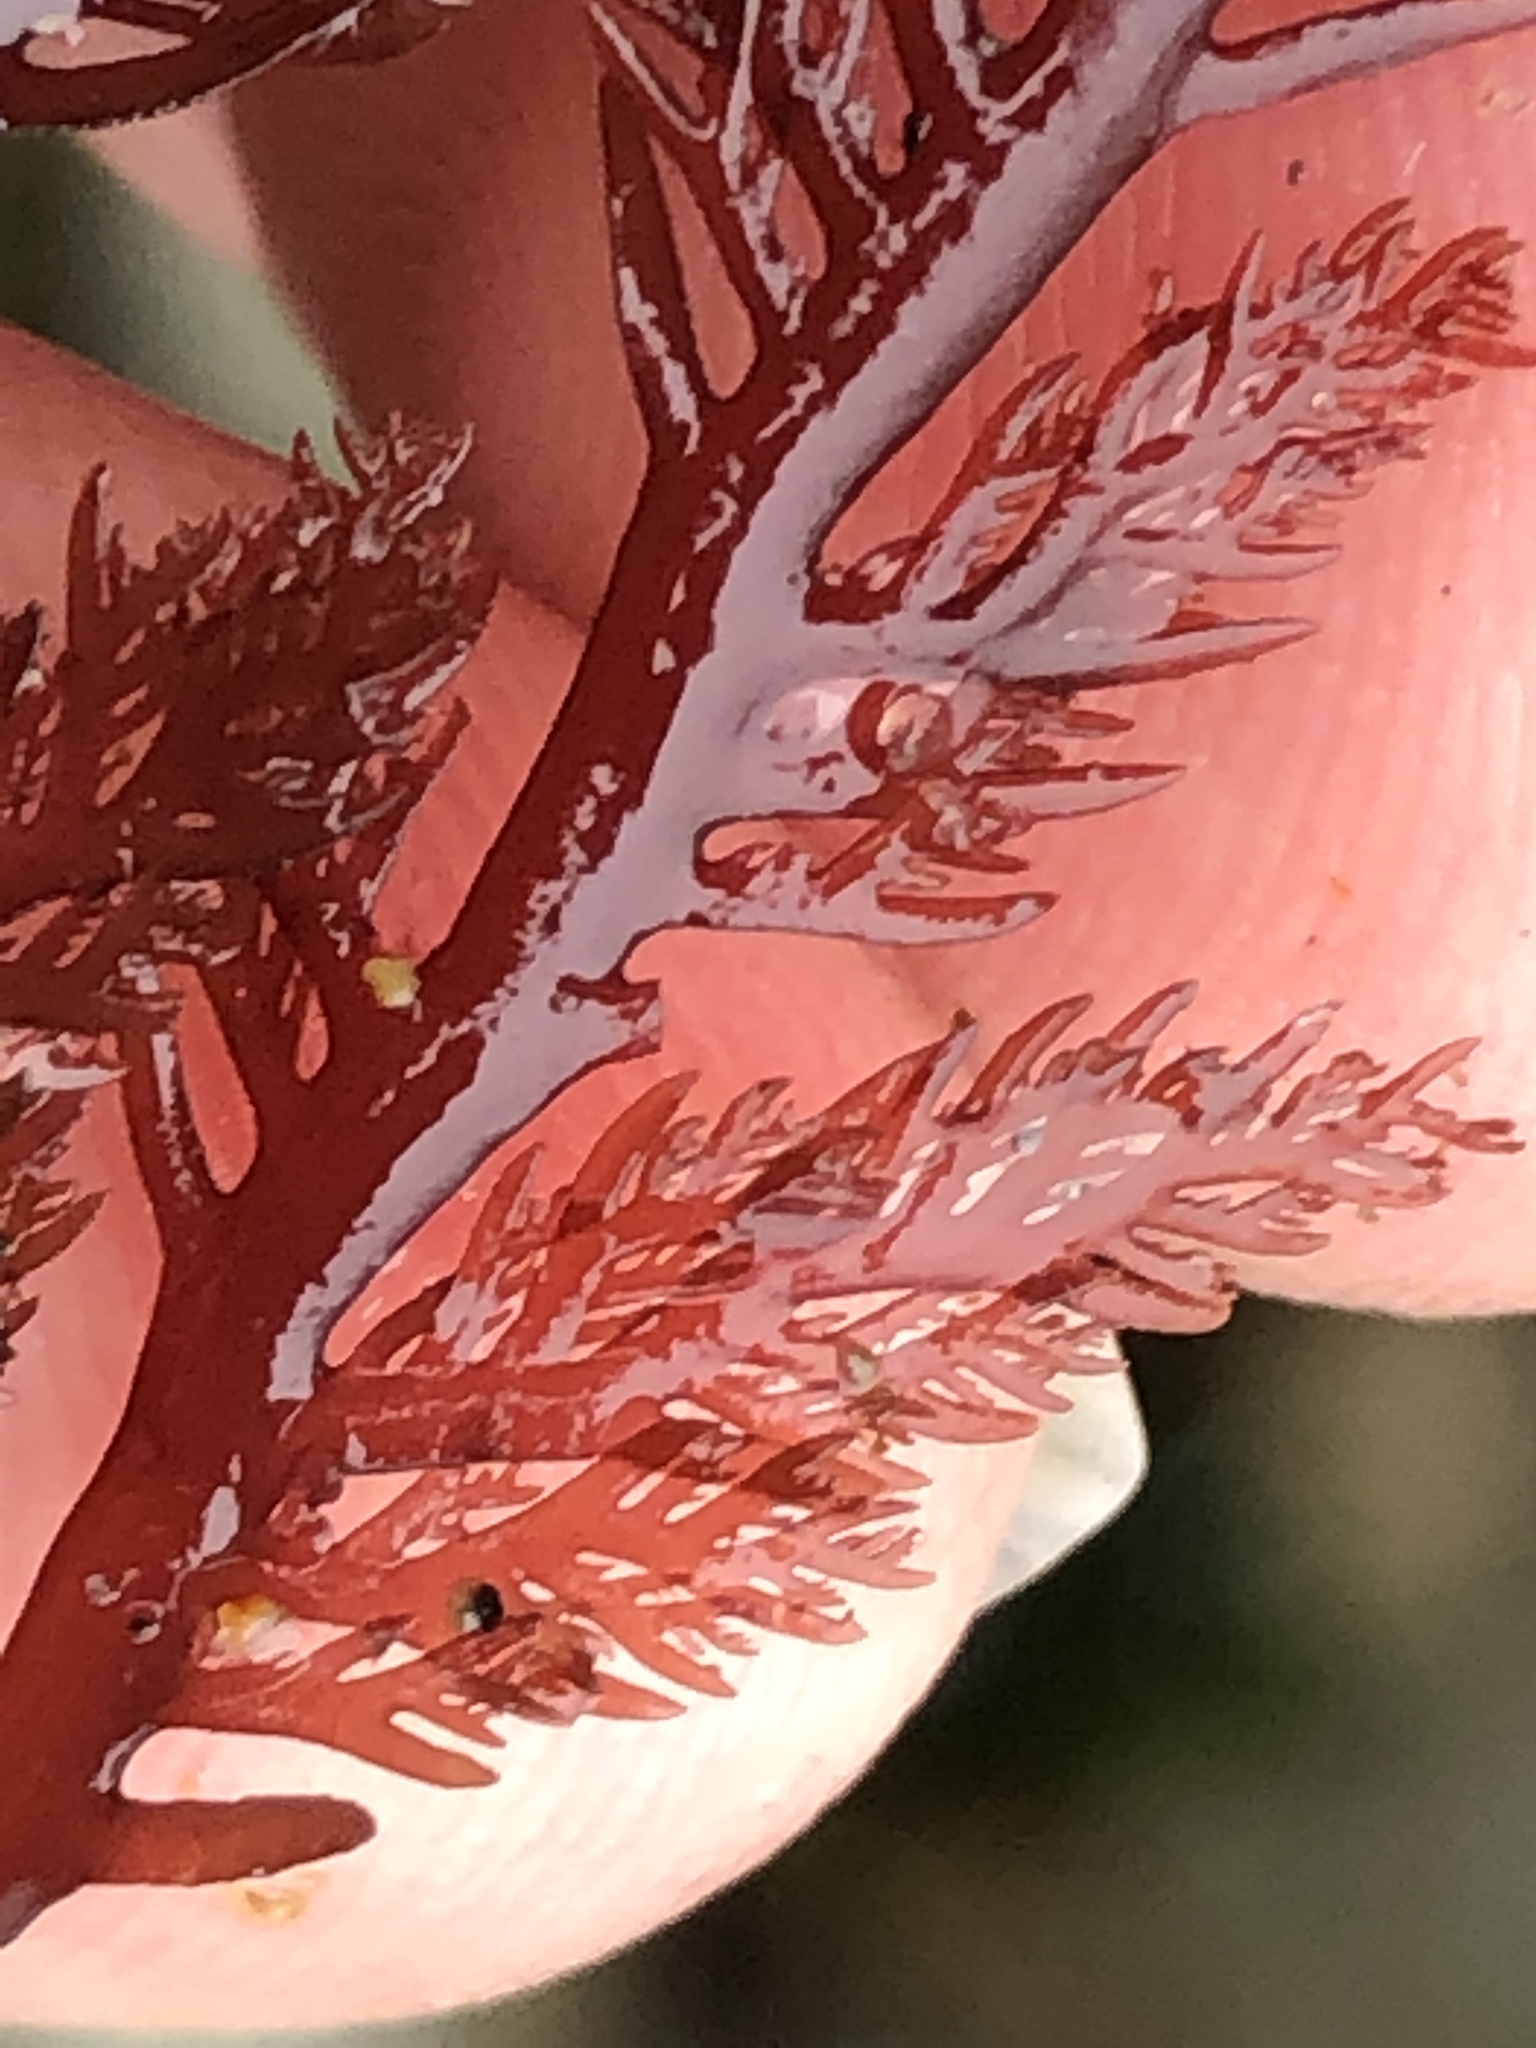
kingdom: Plantae
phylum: Rhodophyta
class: Florideophyceae
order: Plocamiales
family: Plocamiaceae
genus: Plocamium
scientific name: Plocamium cartilagineum
